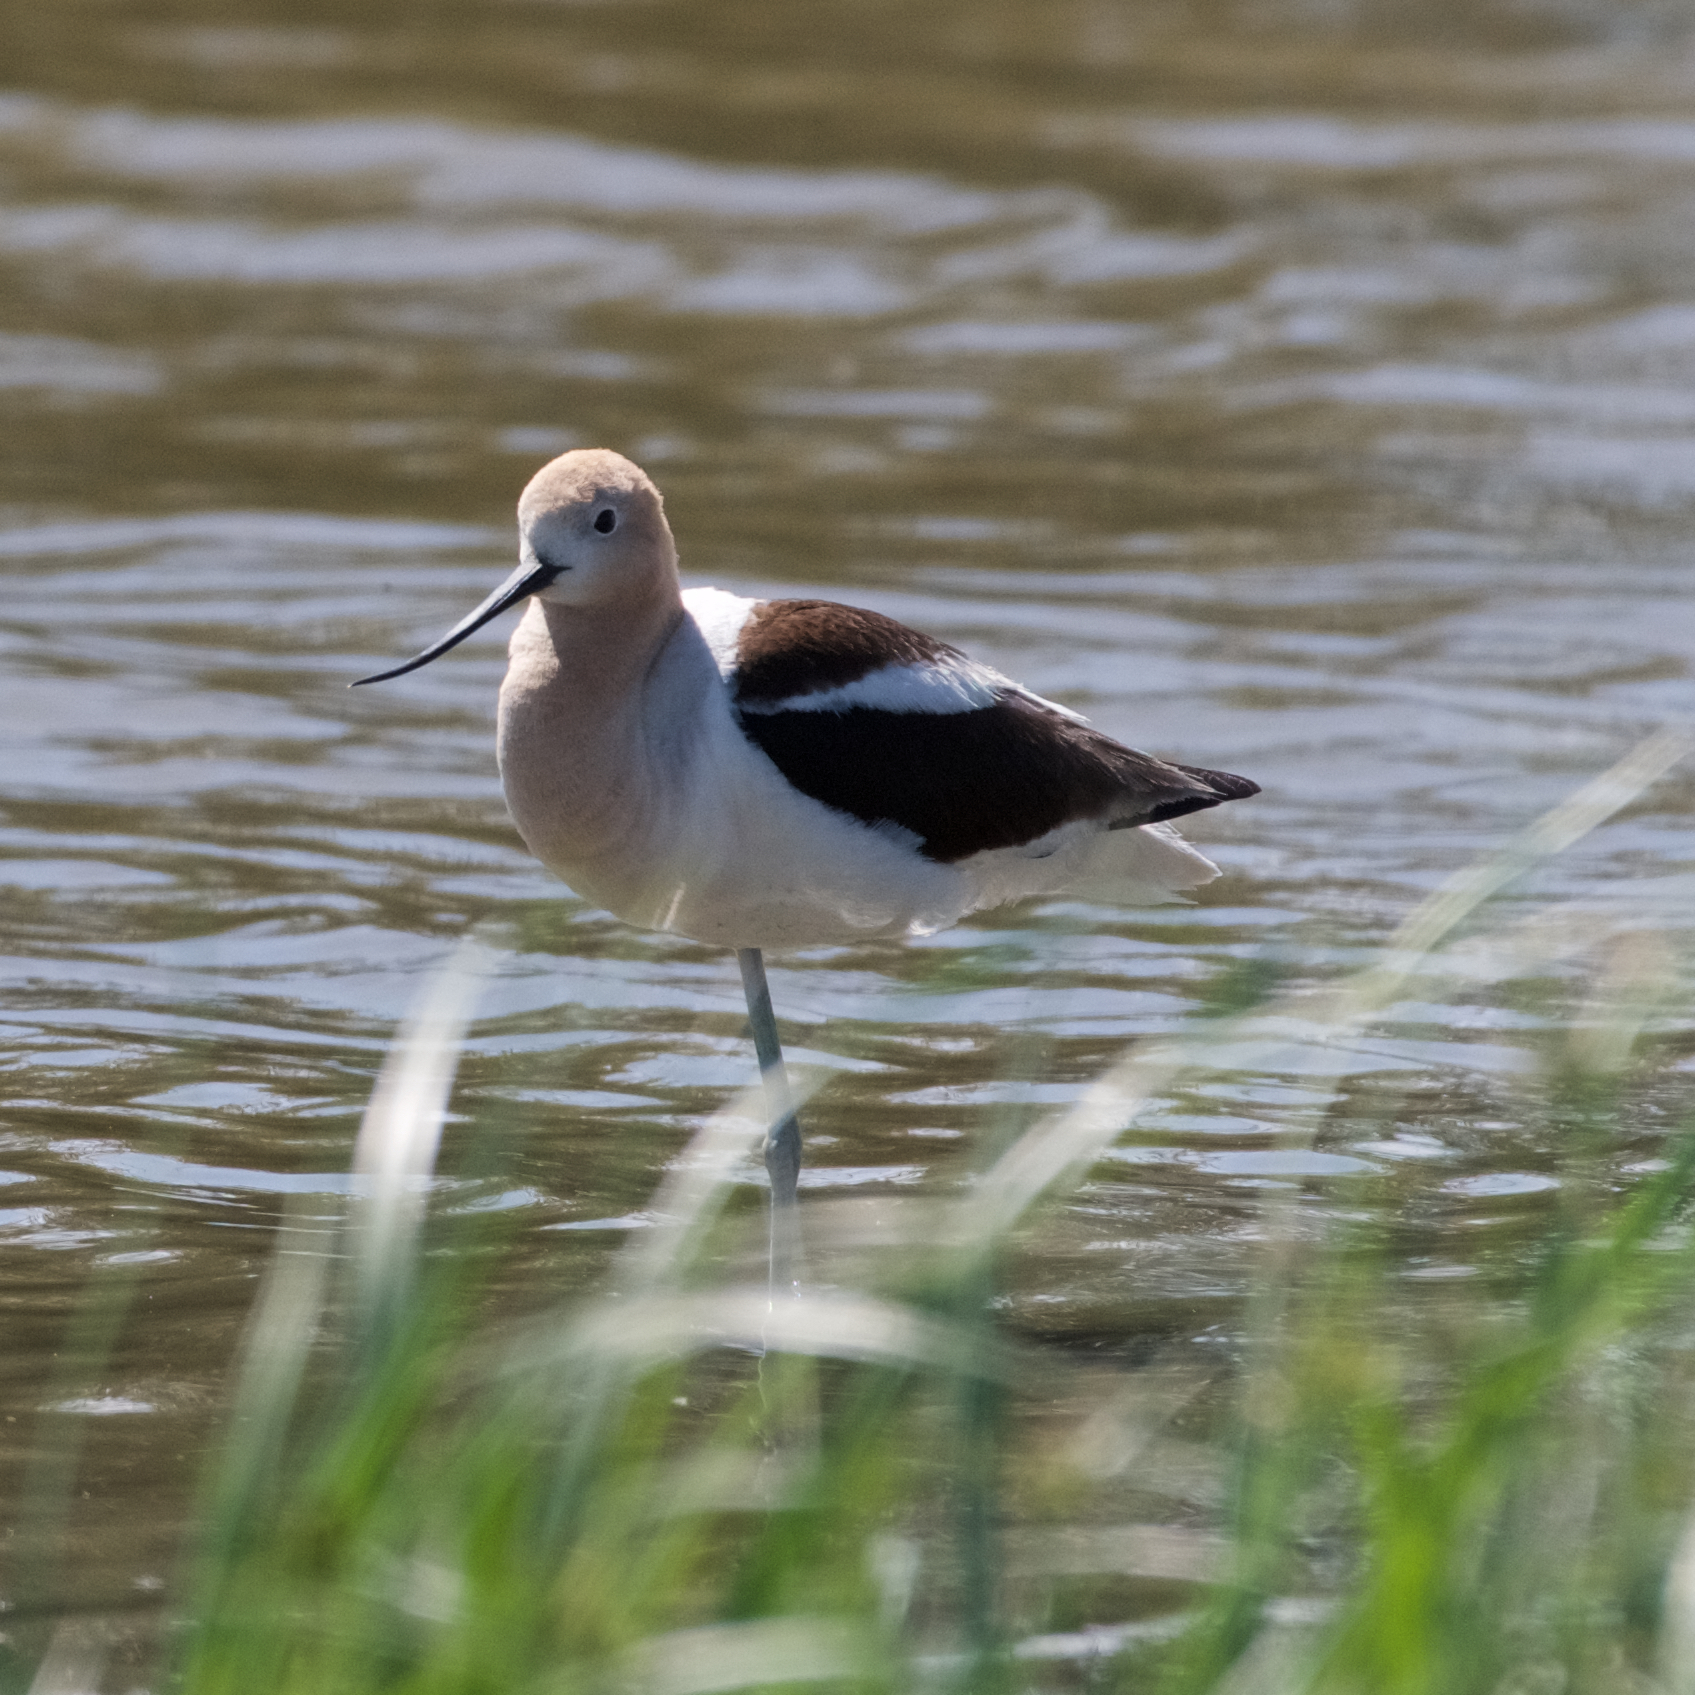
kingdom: Animalia
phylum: Chordata
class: Aves
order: Charadriiformes
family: Recurvirostridae
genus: Recurvirostra
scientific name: Recurvirostra americana
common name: American avocet
